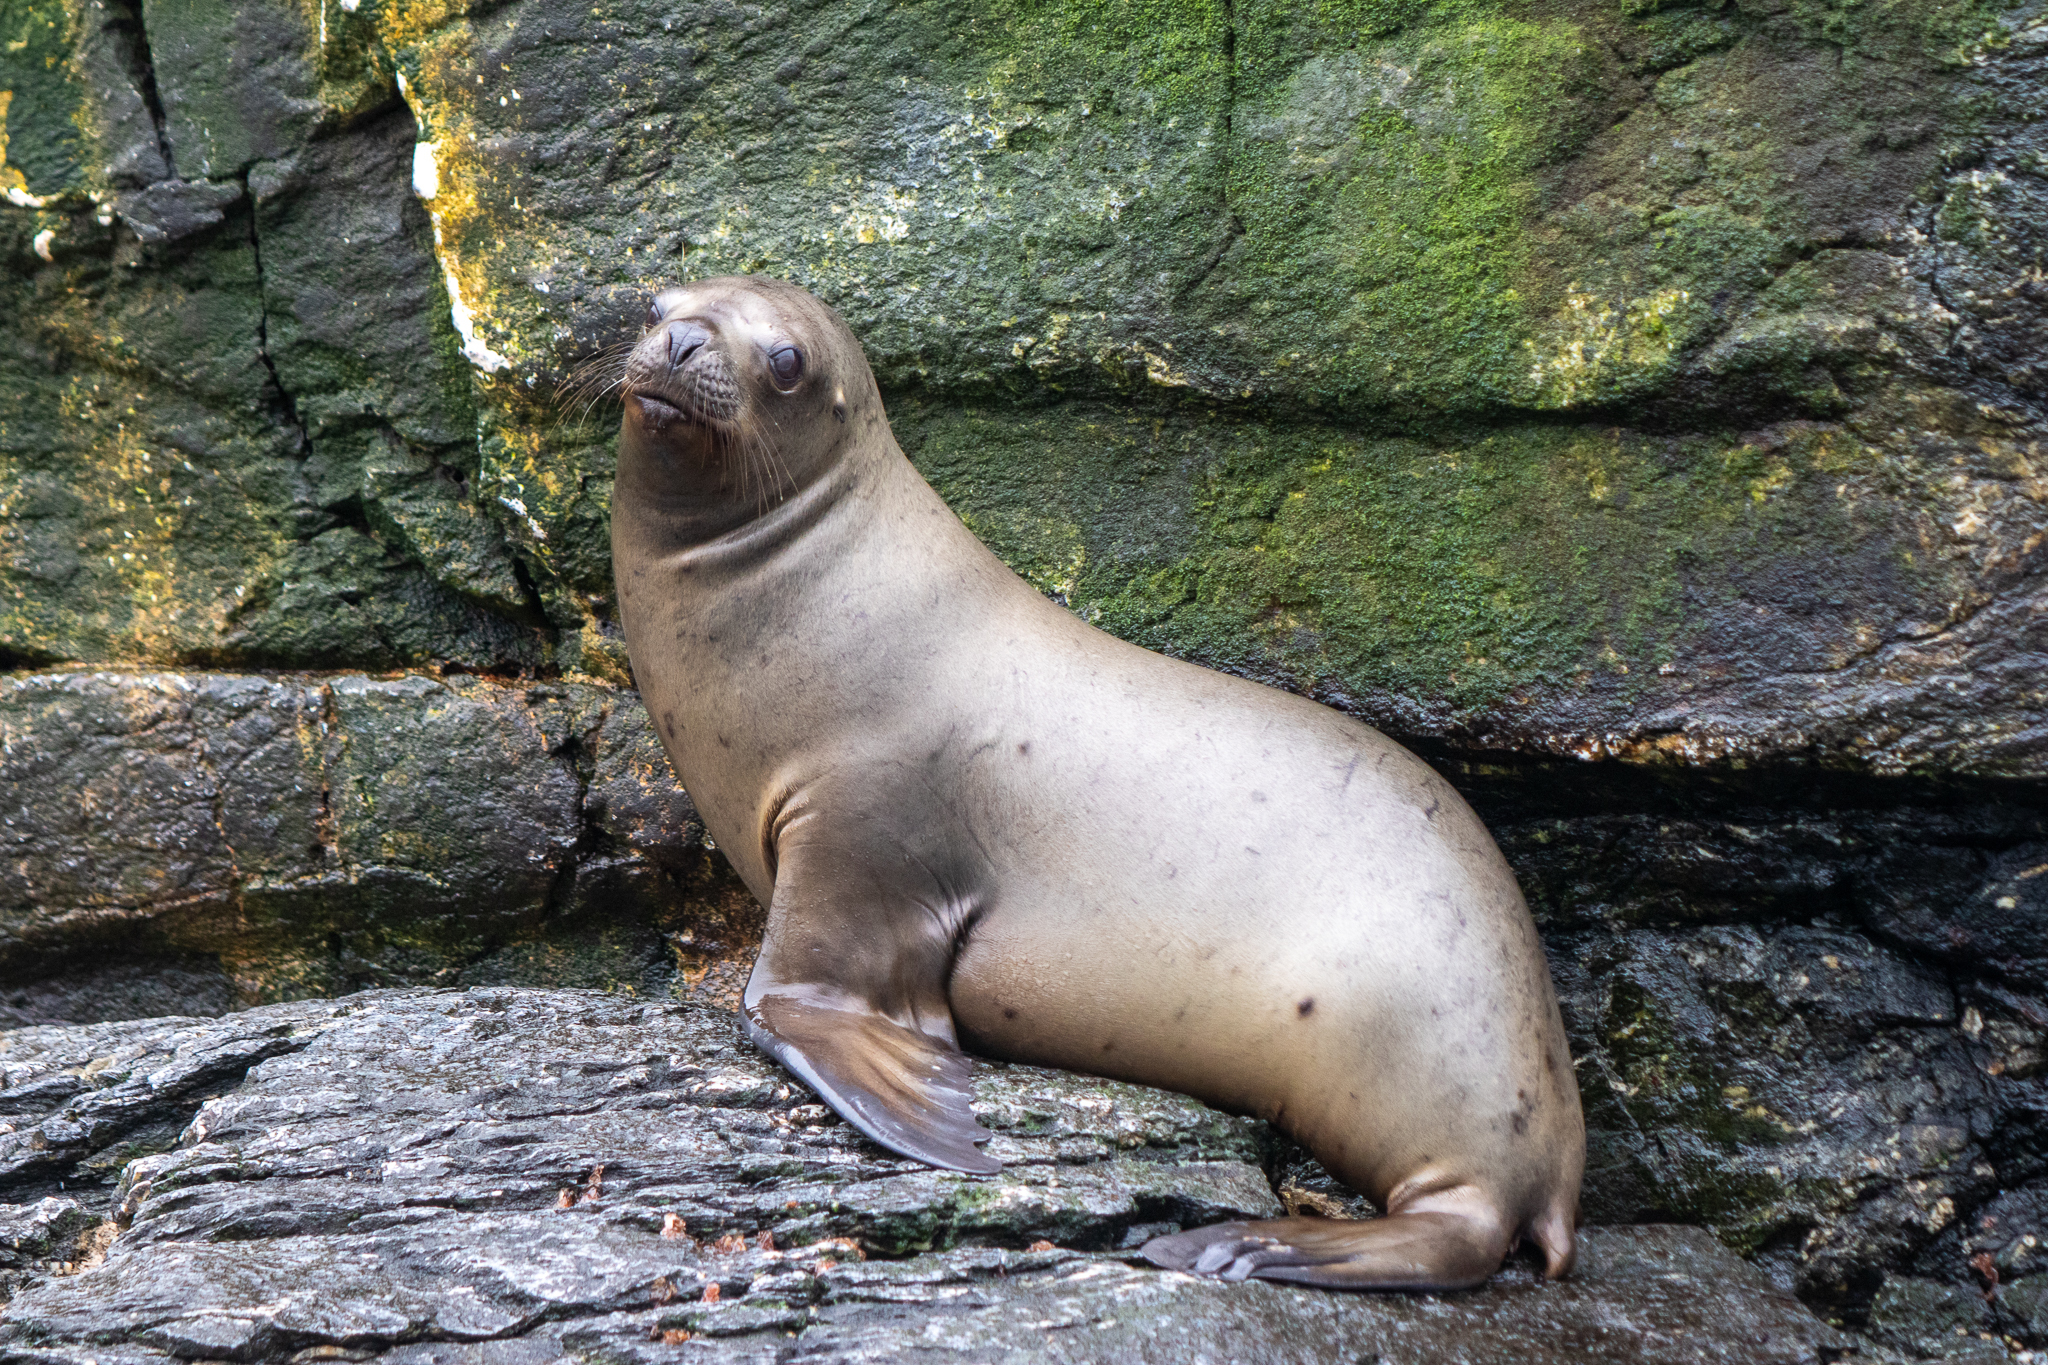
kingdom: Animalia
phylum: Chordata
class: Mammalia
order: Carnivora
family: Otariidae
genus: Otaria
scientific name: Otaria byronia
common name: South american sea lion
